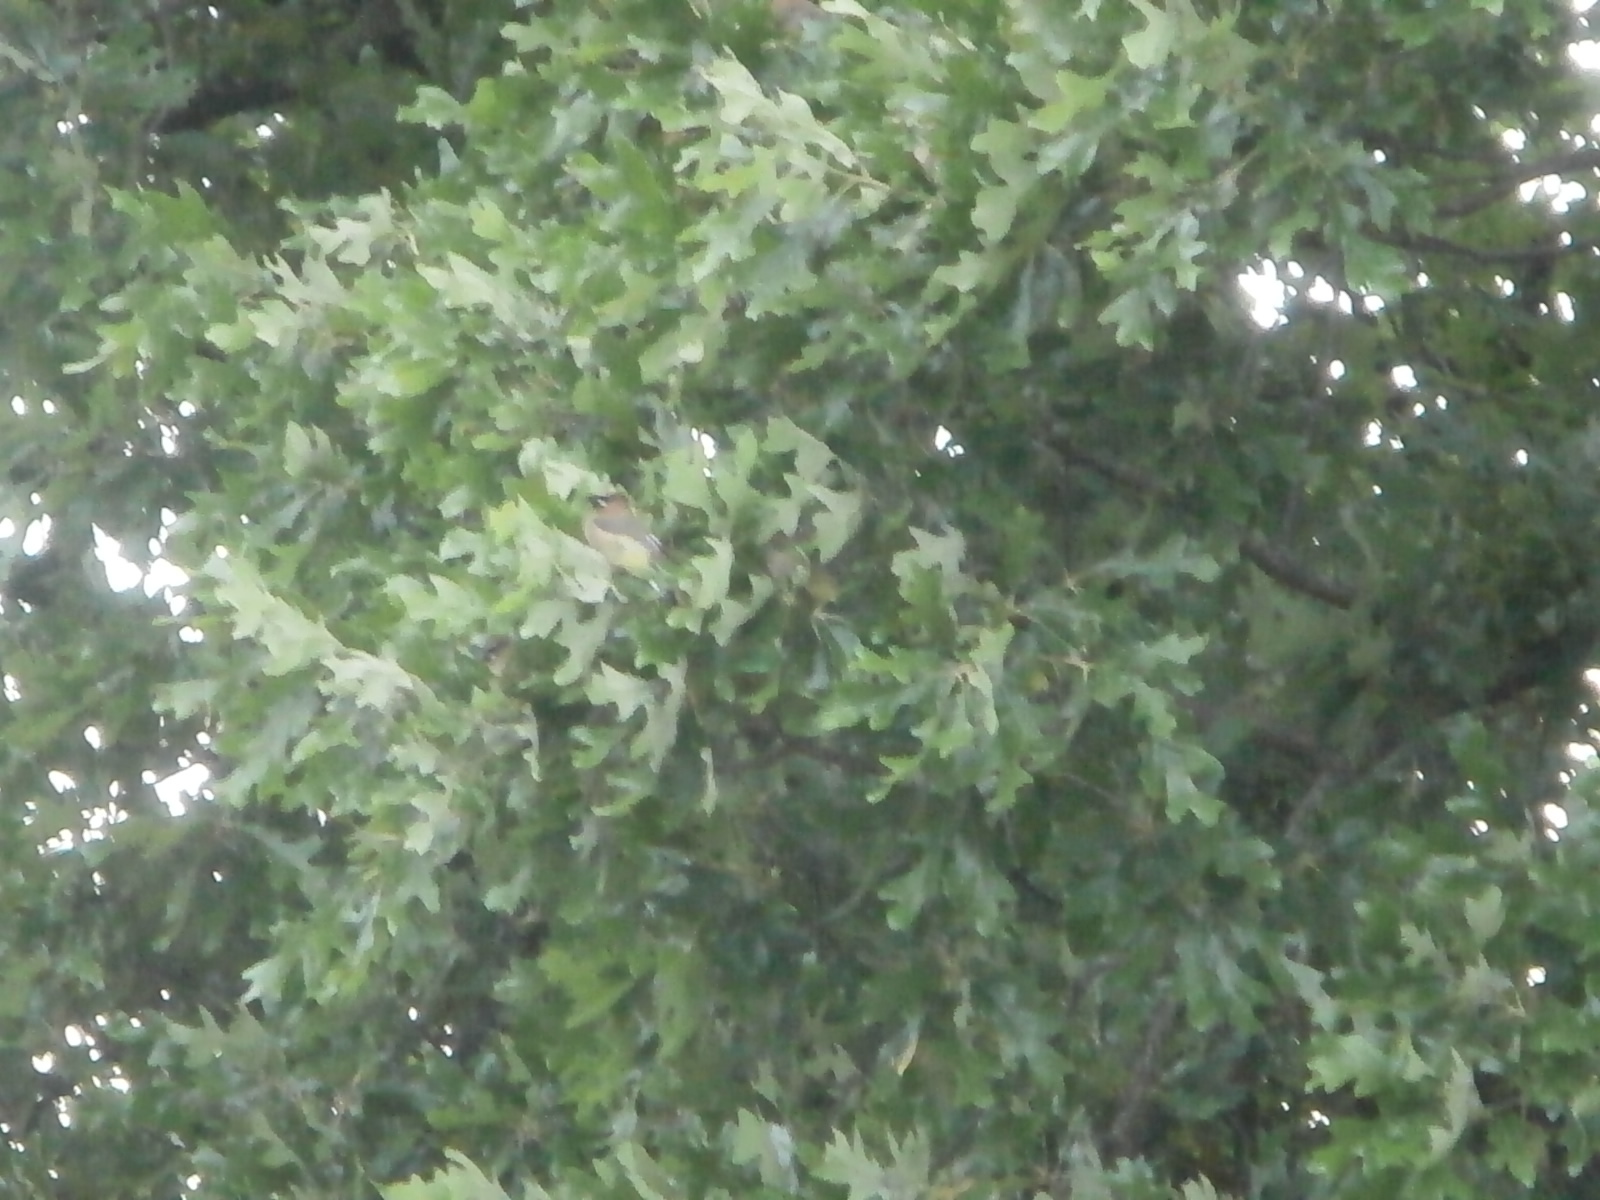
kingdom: Animalia
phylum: Chordata
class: Aves
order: Passeriformes
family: Bombycillidae
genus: Bombycilla
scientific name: Bombycilla cedrorum
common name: Cedar waxwing
